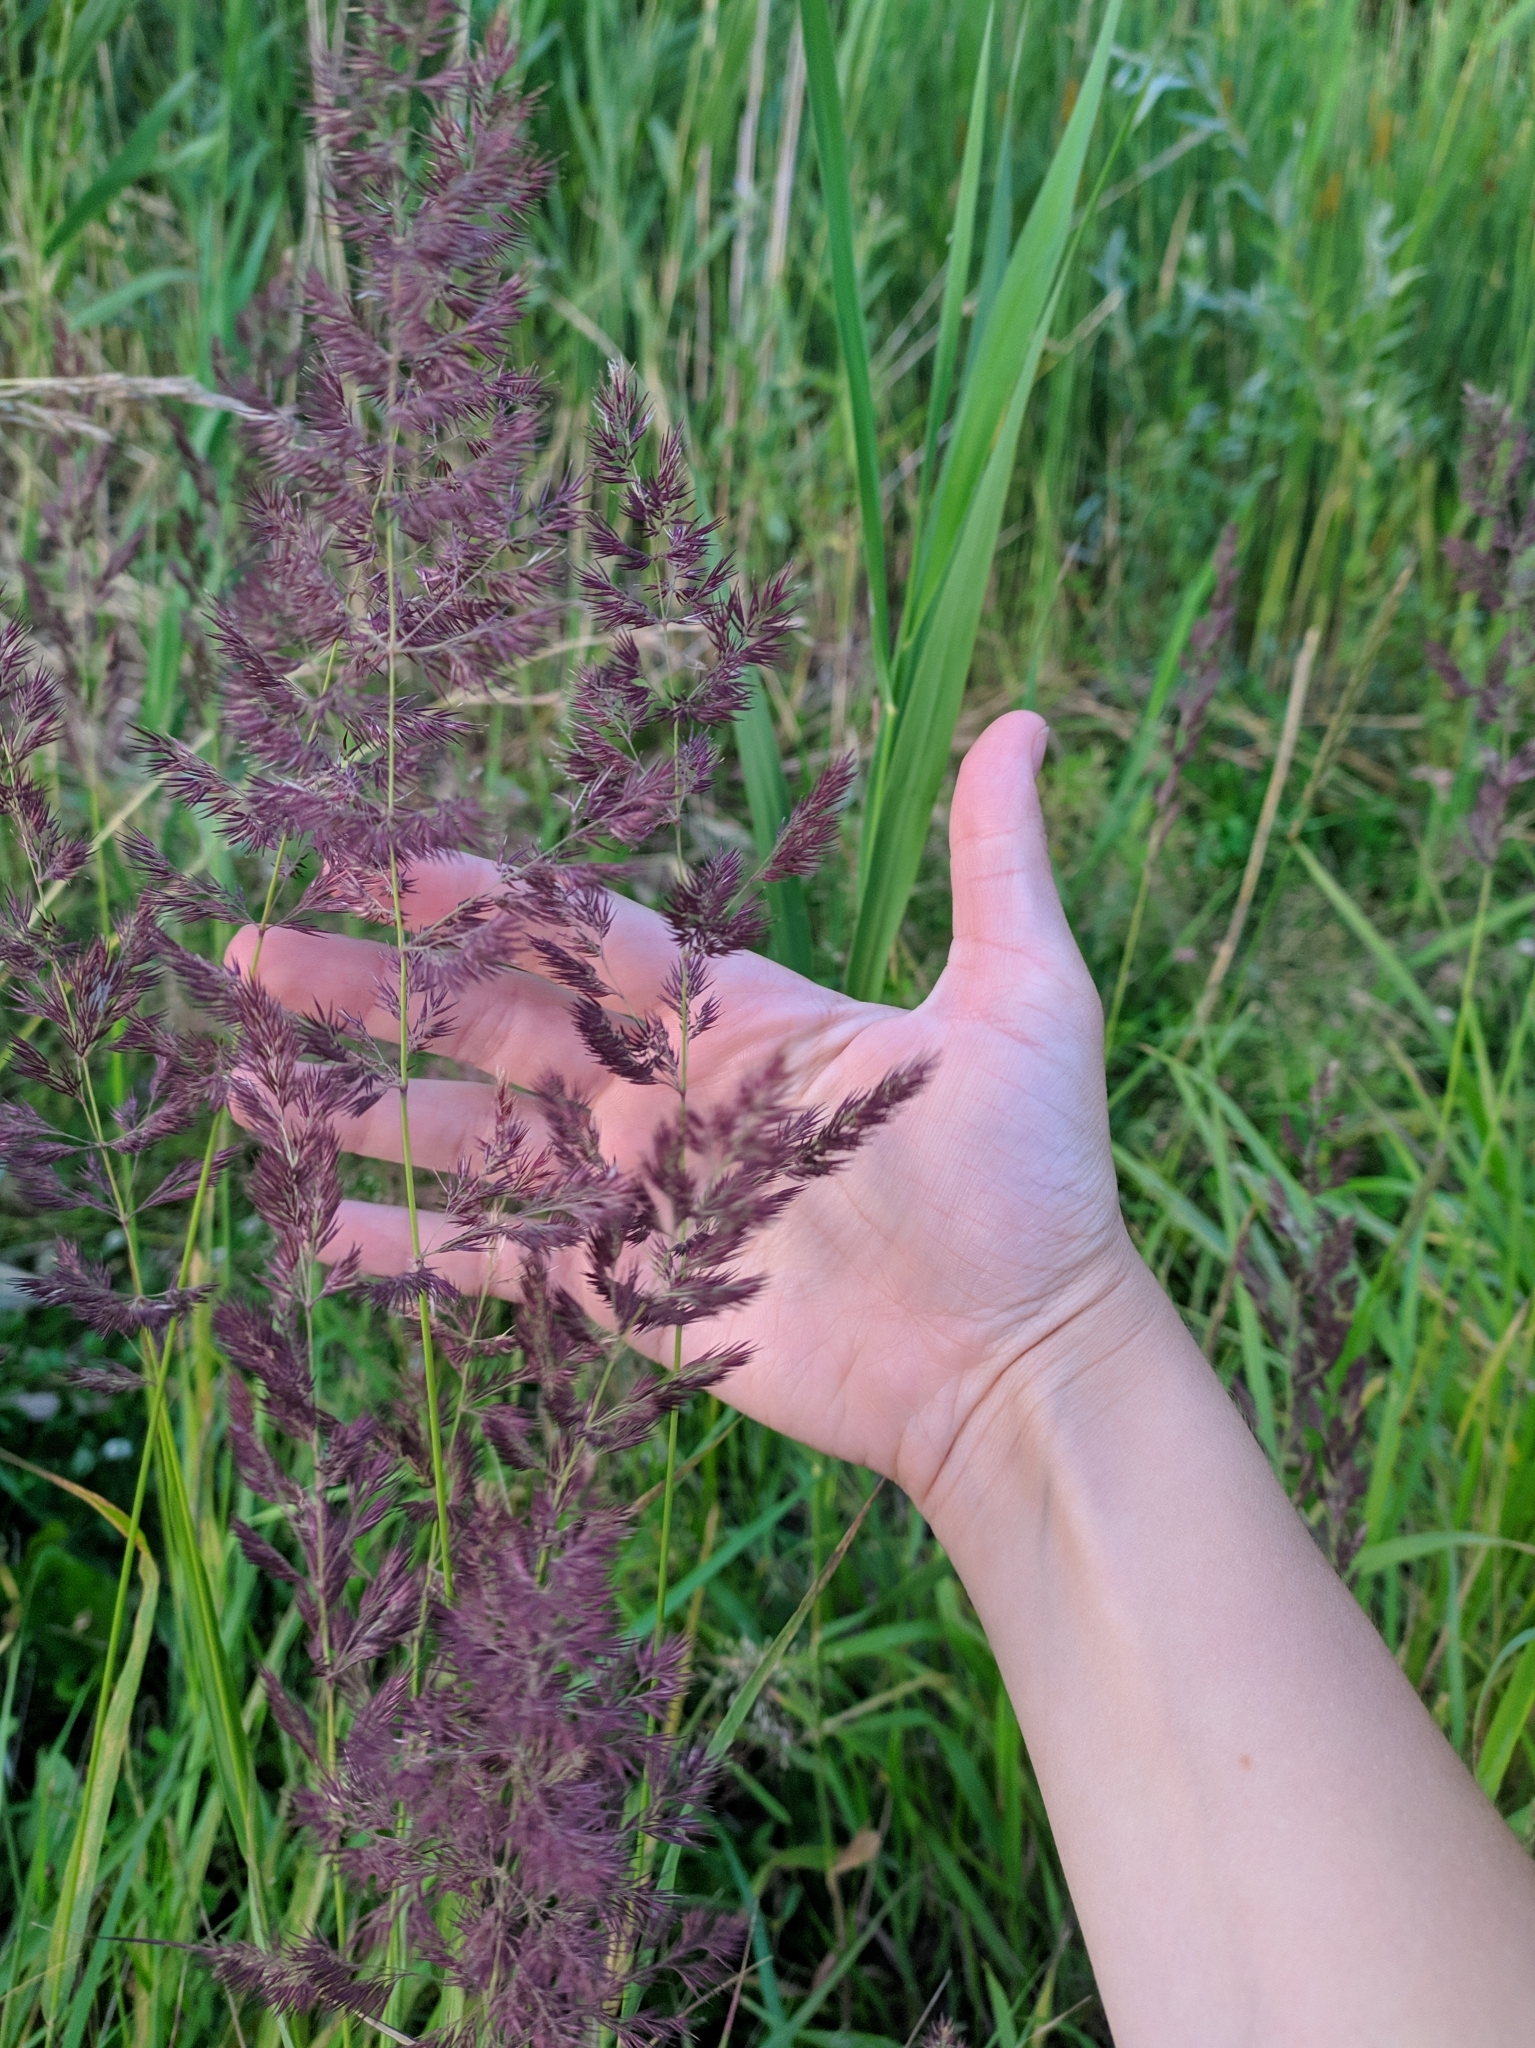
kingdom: Plantae
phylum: Tracheophyta
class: Liliopsida
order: Poales
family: Poaceae
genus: Calamagrostis
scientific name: Calamagrostis epigejos
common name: Wood small-reed
